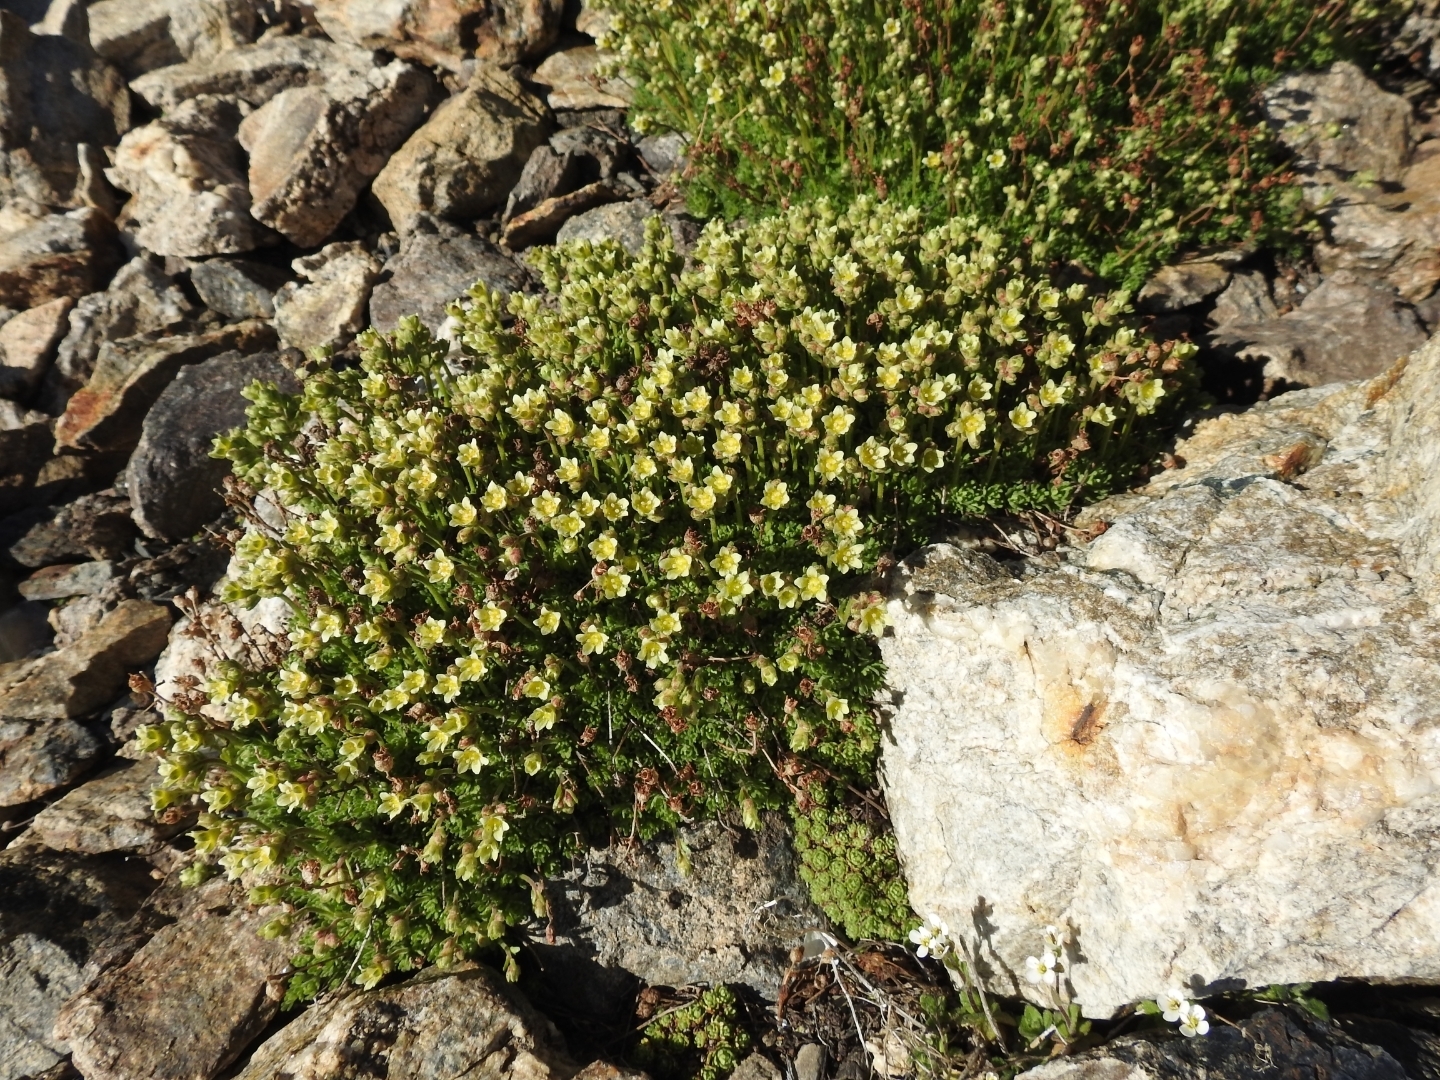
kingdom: Plantae
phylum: Tracheophyta
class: Magnoliopsida
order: Saxifragales
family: Saxifragaceae
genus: Saxifraga
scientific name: Saxifraga exarata
